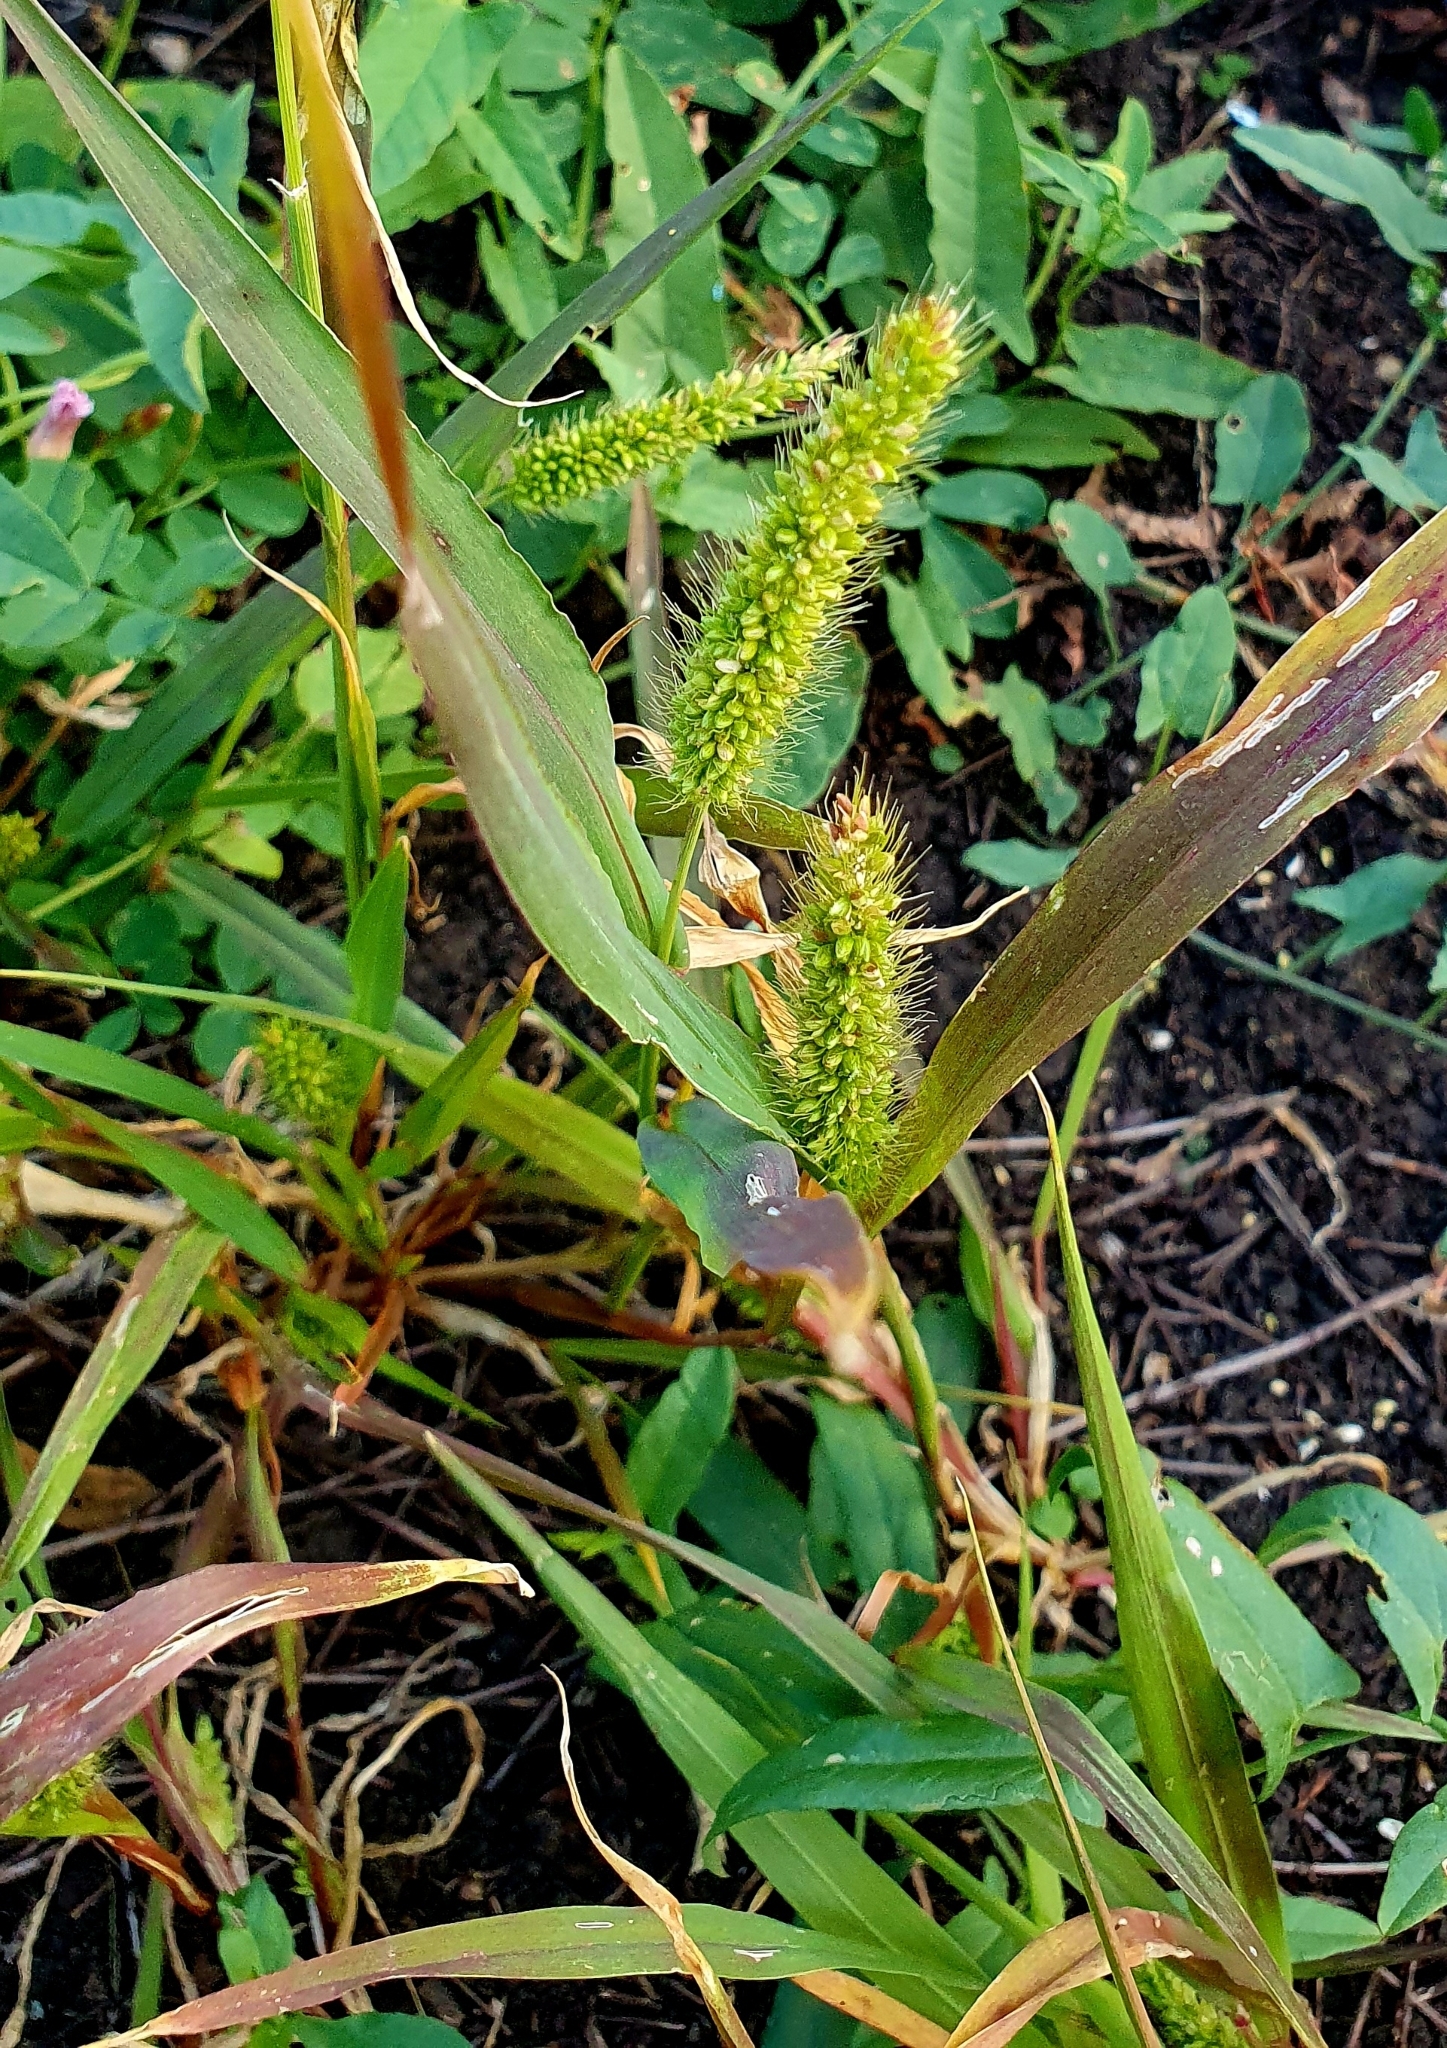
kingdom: Plantae
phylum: Tracheophyta
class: Liliopsida
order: Poales
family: Poaceae
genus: Setaria
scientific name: Setaria viridis
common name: Green bristlegrass
